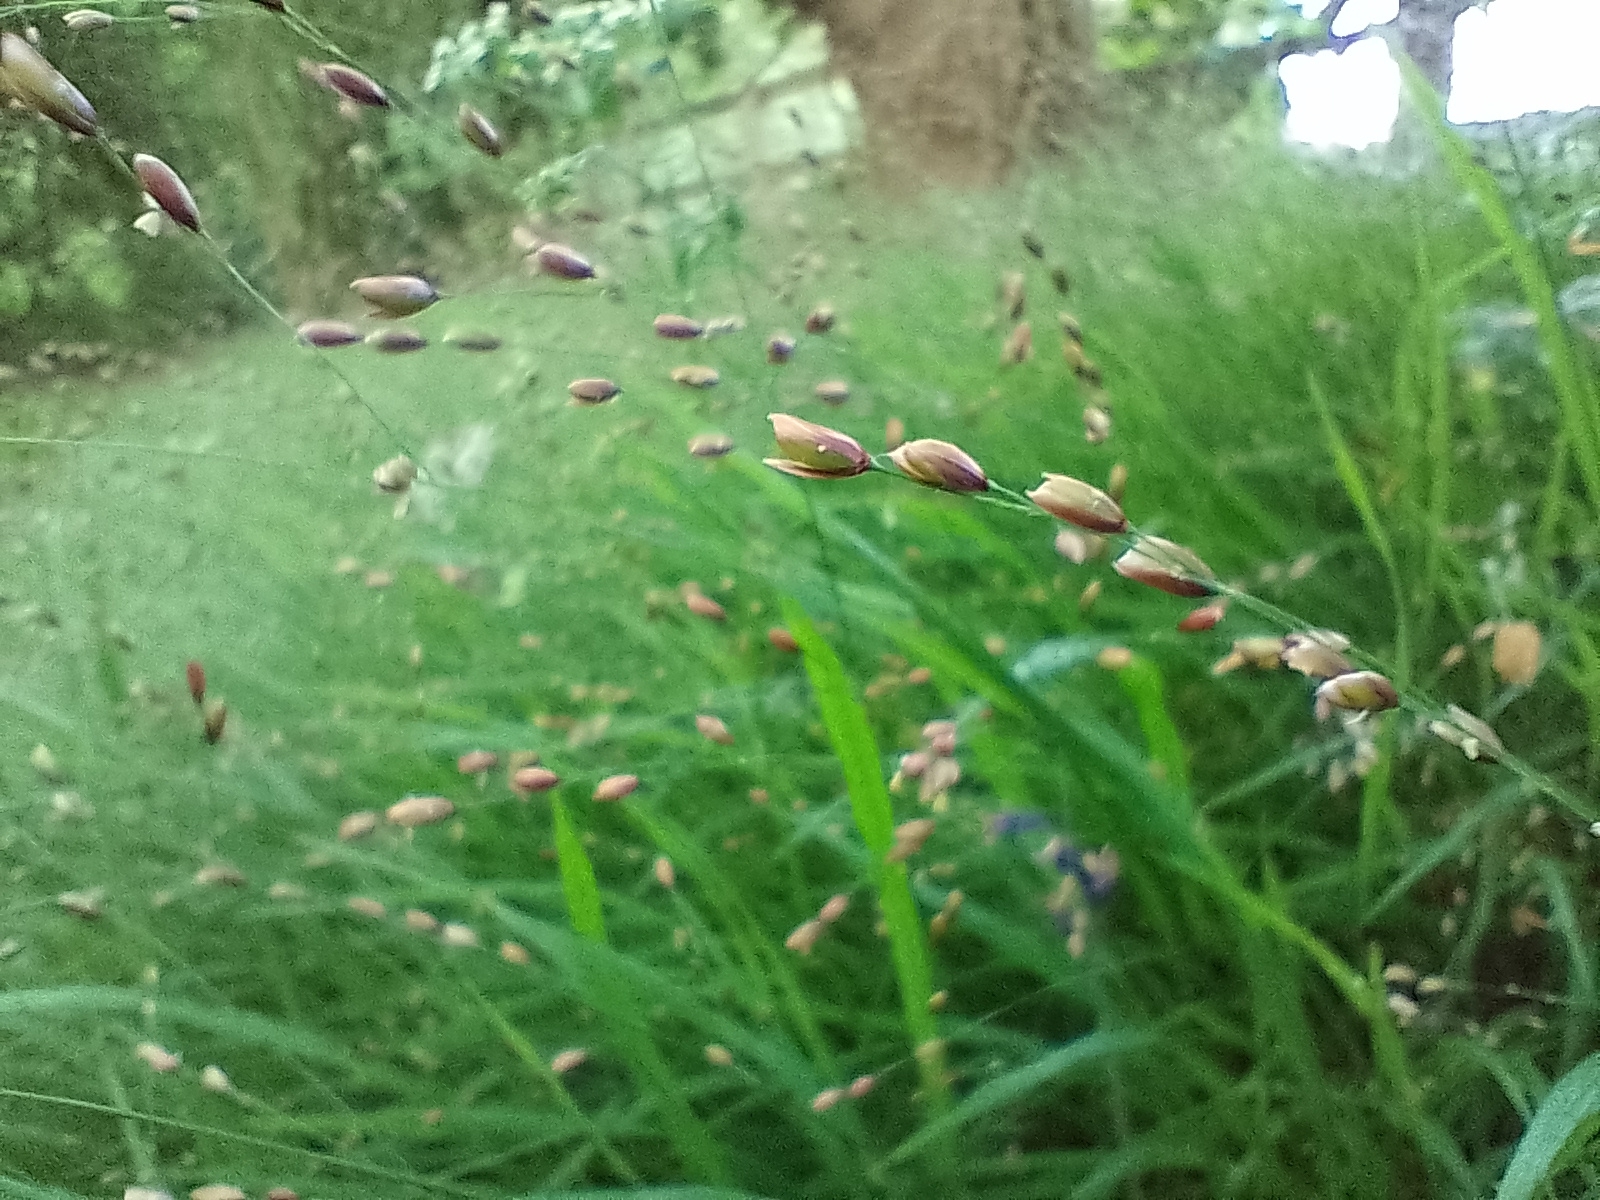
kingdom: Plantae
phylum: Tracheophyta
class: Liliopsida
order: Poales
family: Poaceae
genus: Melica
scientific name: Melica uniflora
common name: Wood melick
